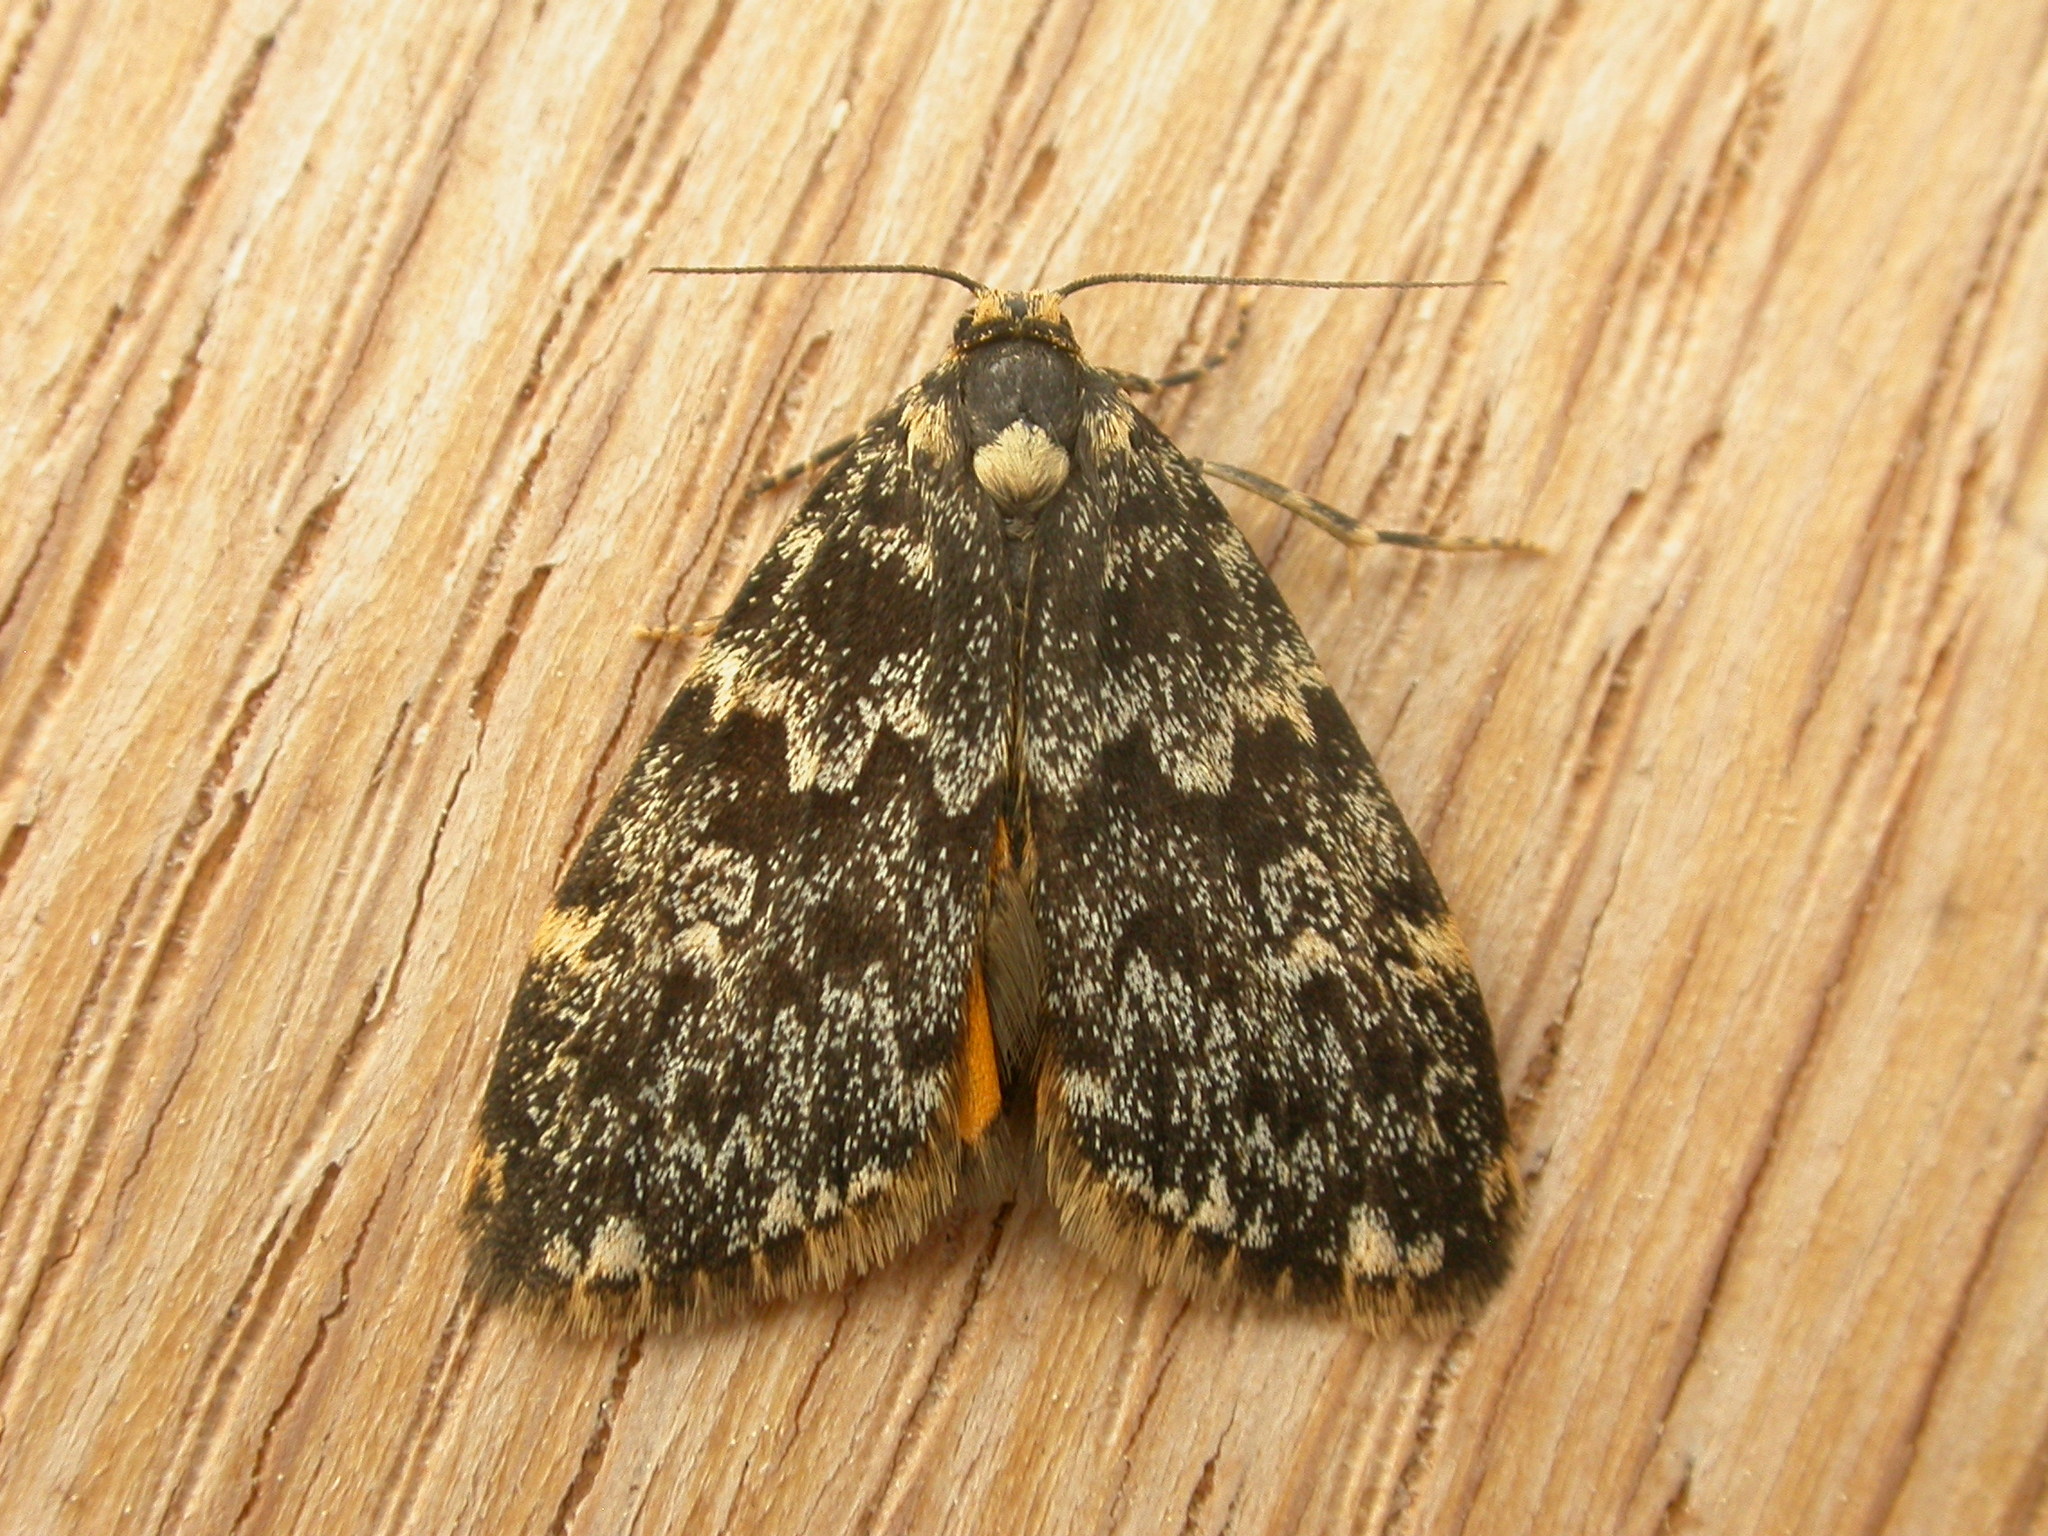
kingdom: Animalia
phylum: Arthropoda
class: Insecta
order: Lepidoptera
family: Erebidae
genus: Halone
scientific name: Halone coryphoea
